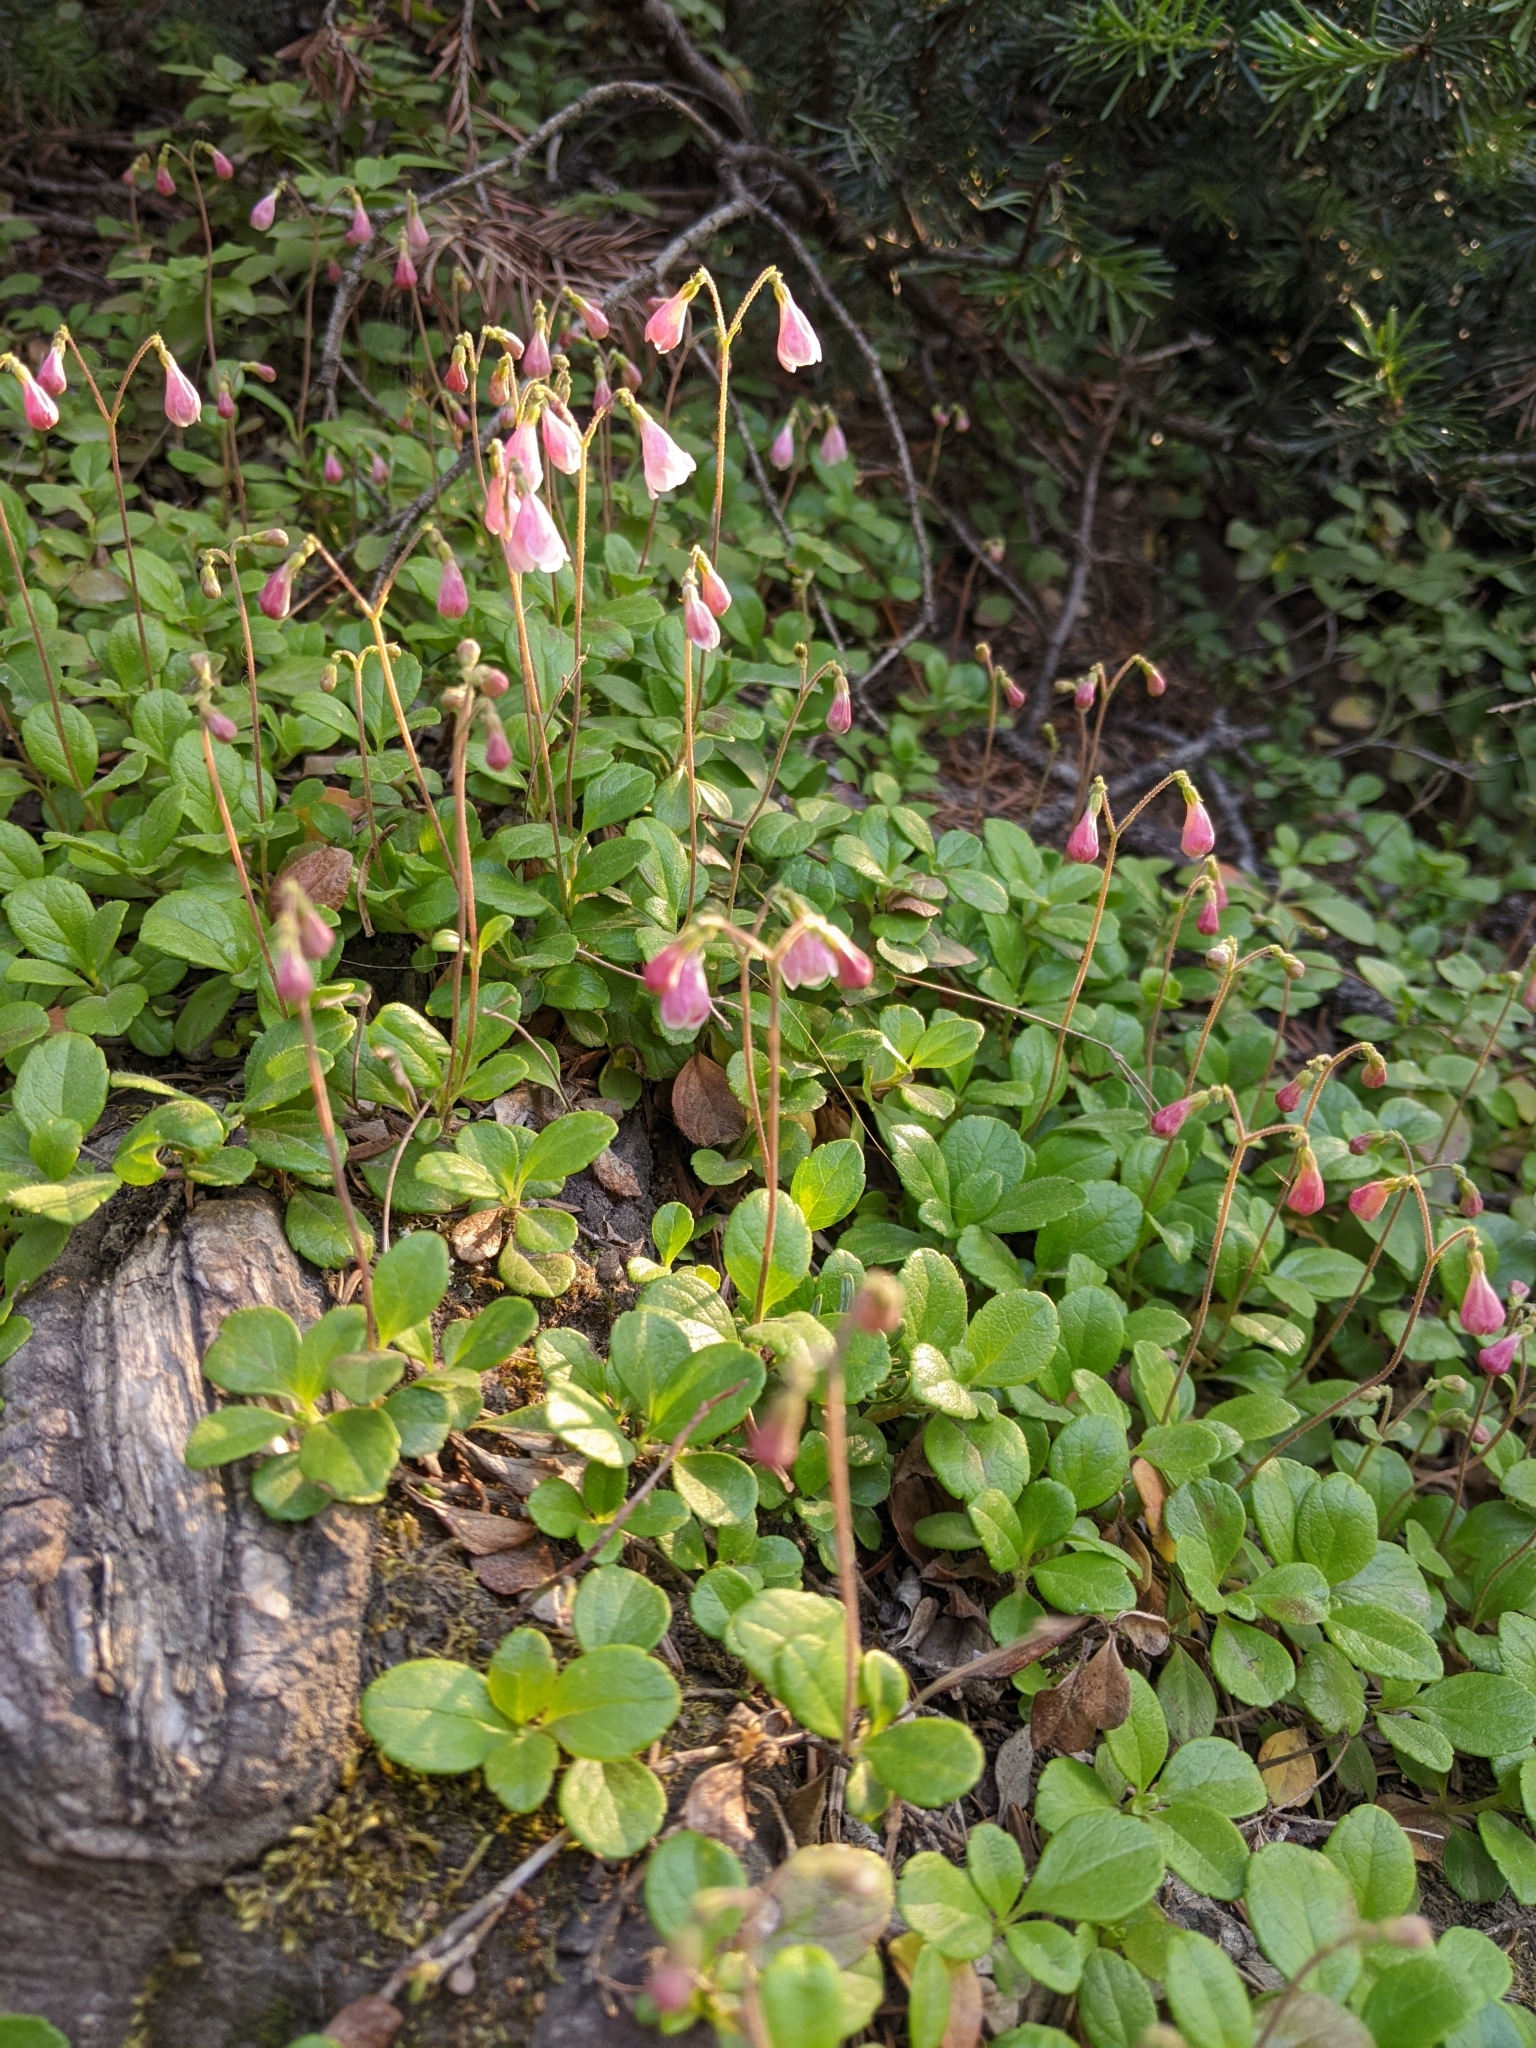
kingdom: Plantae
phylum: Tracheophyta
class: Magnoliopsida
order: Dipsacales
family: Caprifoliaceae
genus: Linnaea
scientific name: Linnaea borealis
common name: Twinflower
